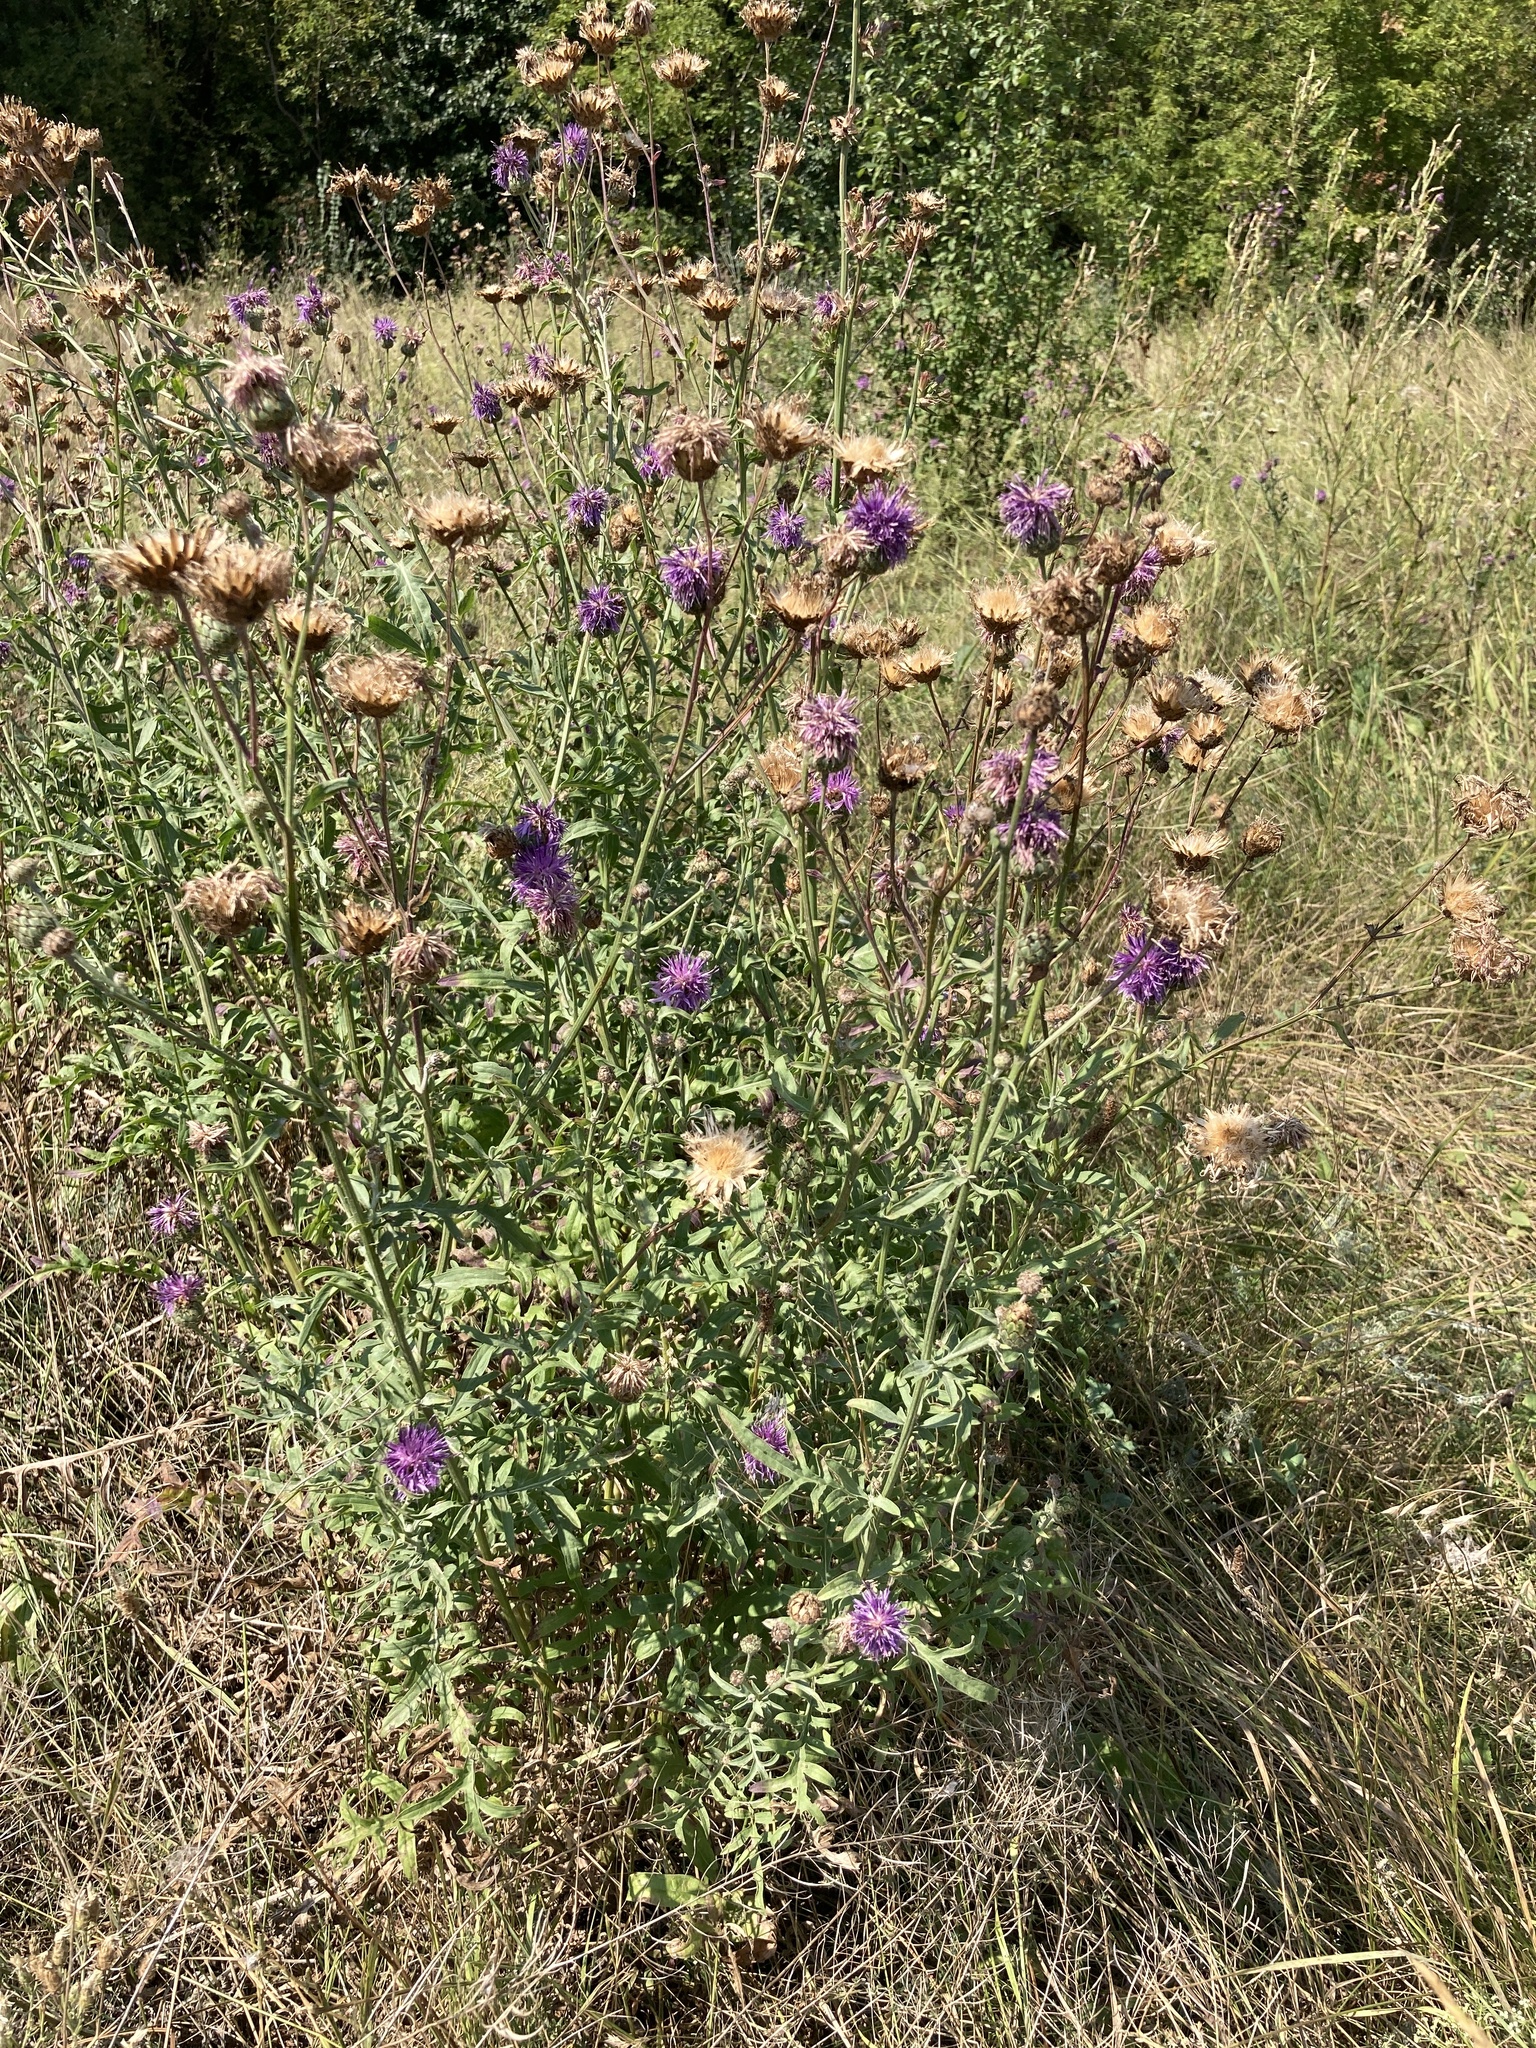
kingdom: Plantae
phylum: Tracheophyta
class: Magnoliopsida
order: Asterales
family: Asteraceae
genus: Centaurea
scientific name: Centaurea scabiosa
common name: Greater knapweed
